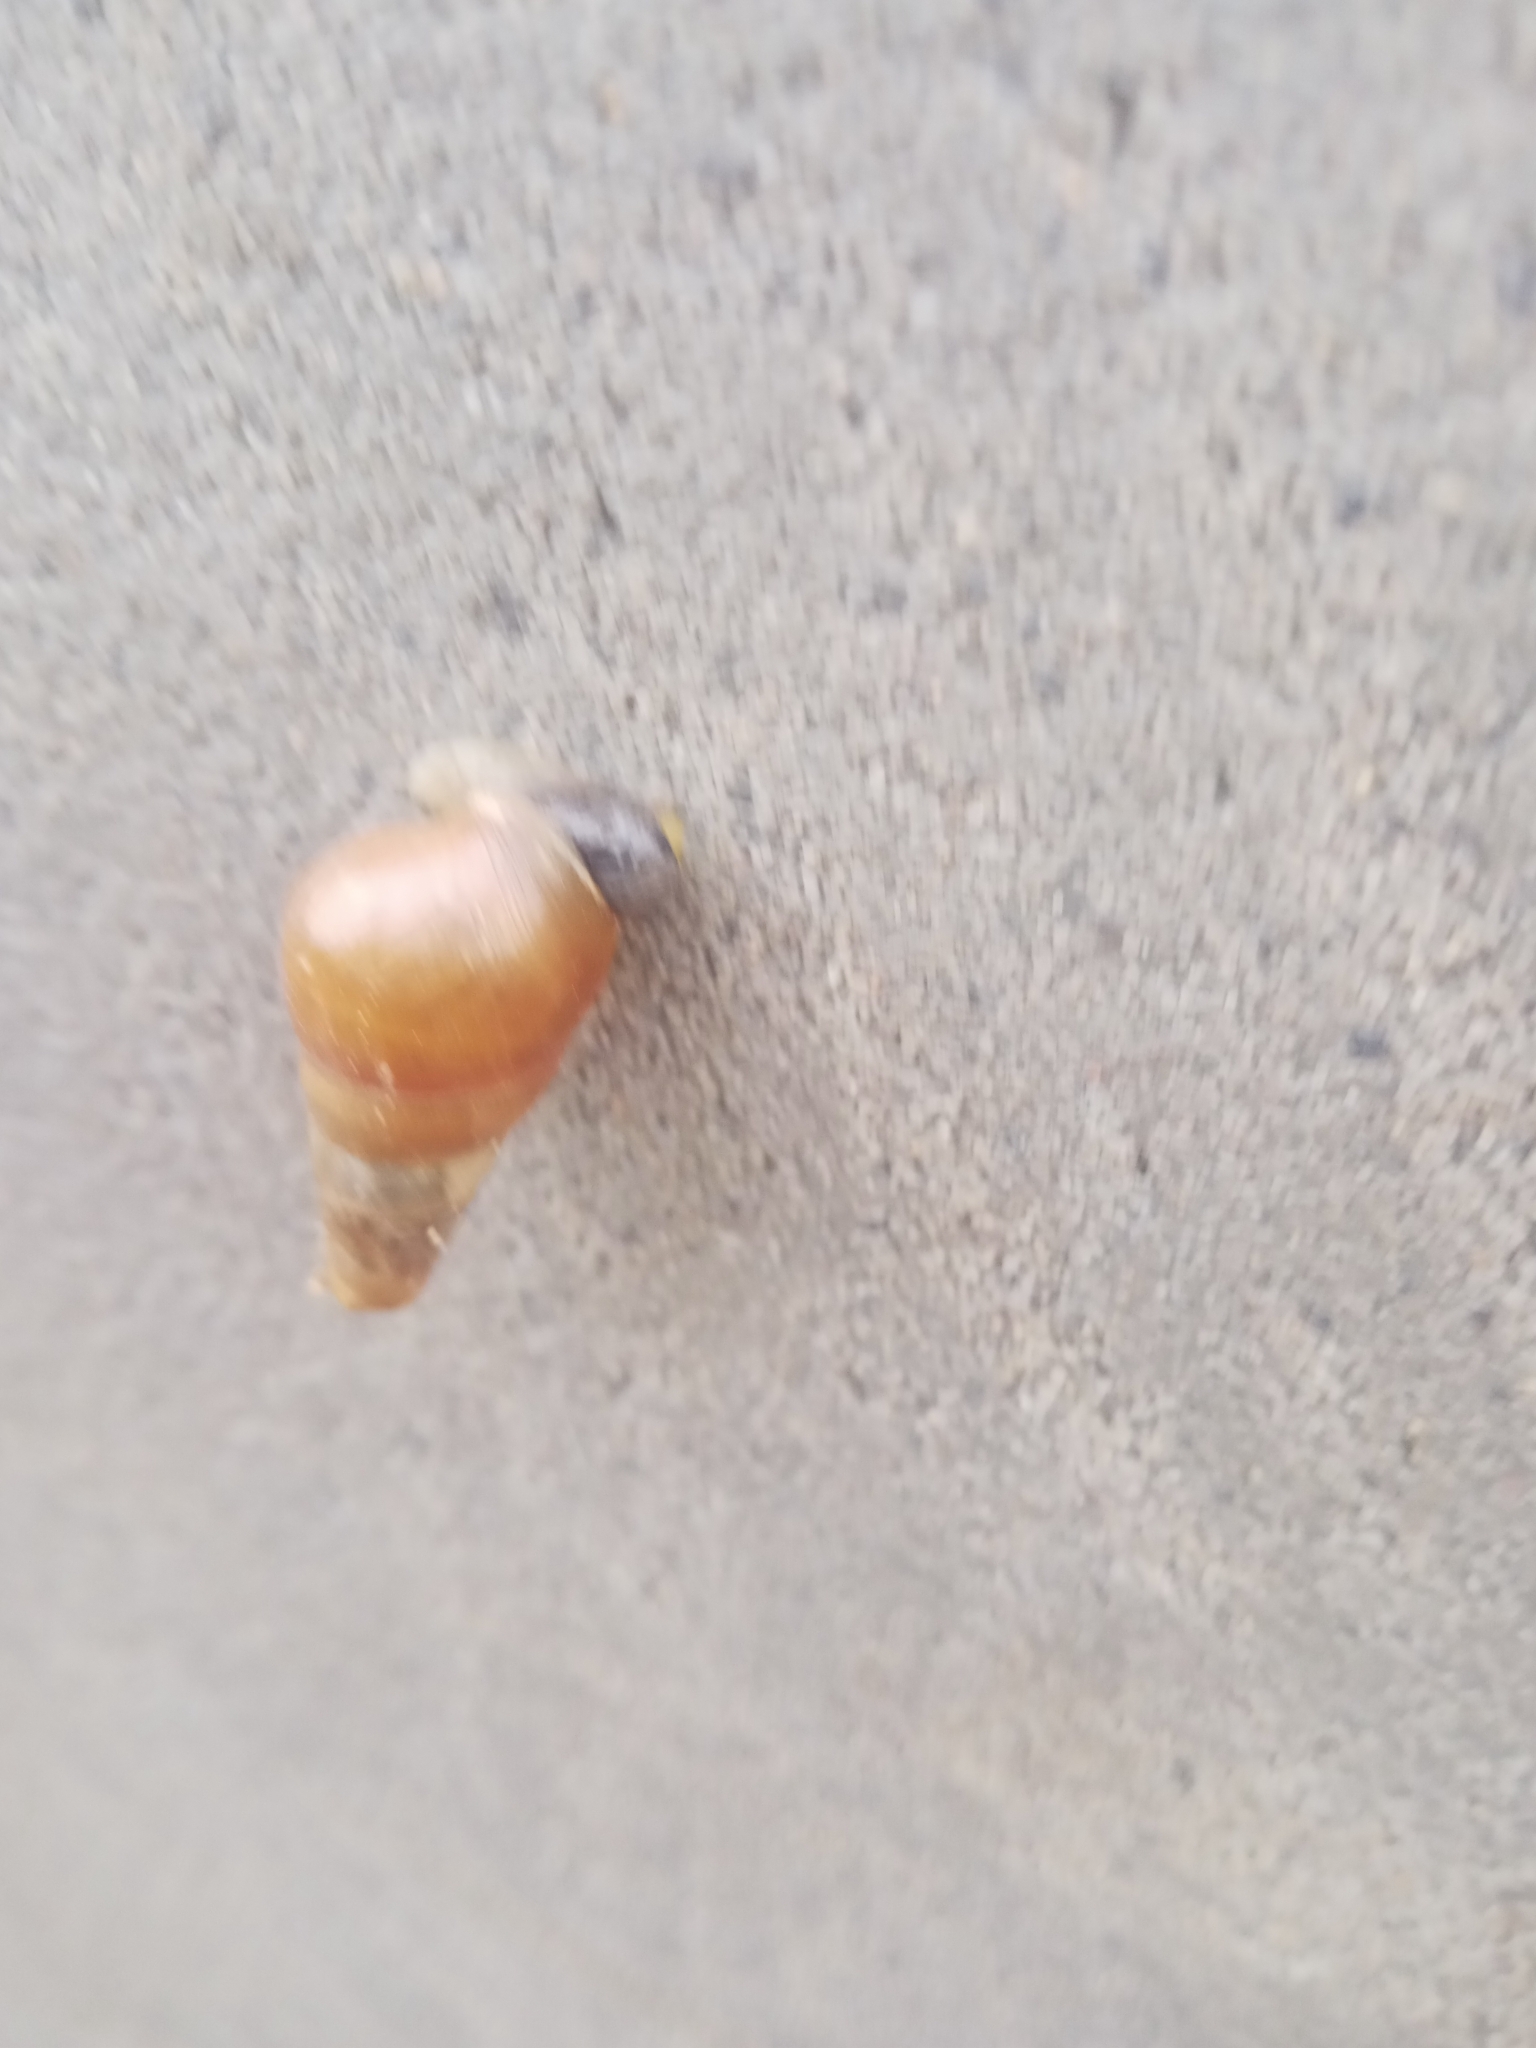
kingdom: Animalia
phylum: Mollusca
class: Gastropoda
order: Stylommatophora
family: Achatinidae
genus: Rumina
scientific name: Rumina decollata
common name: Decollate snail
